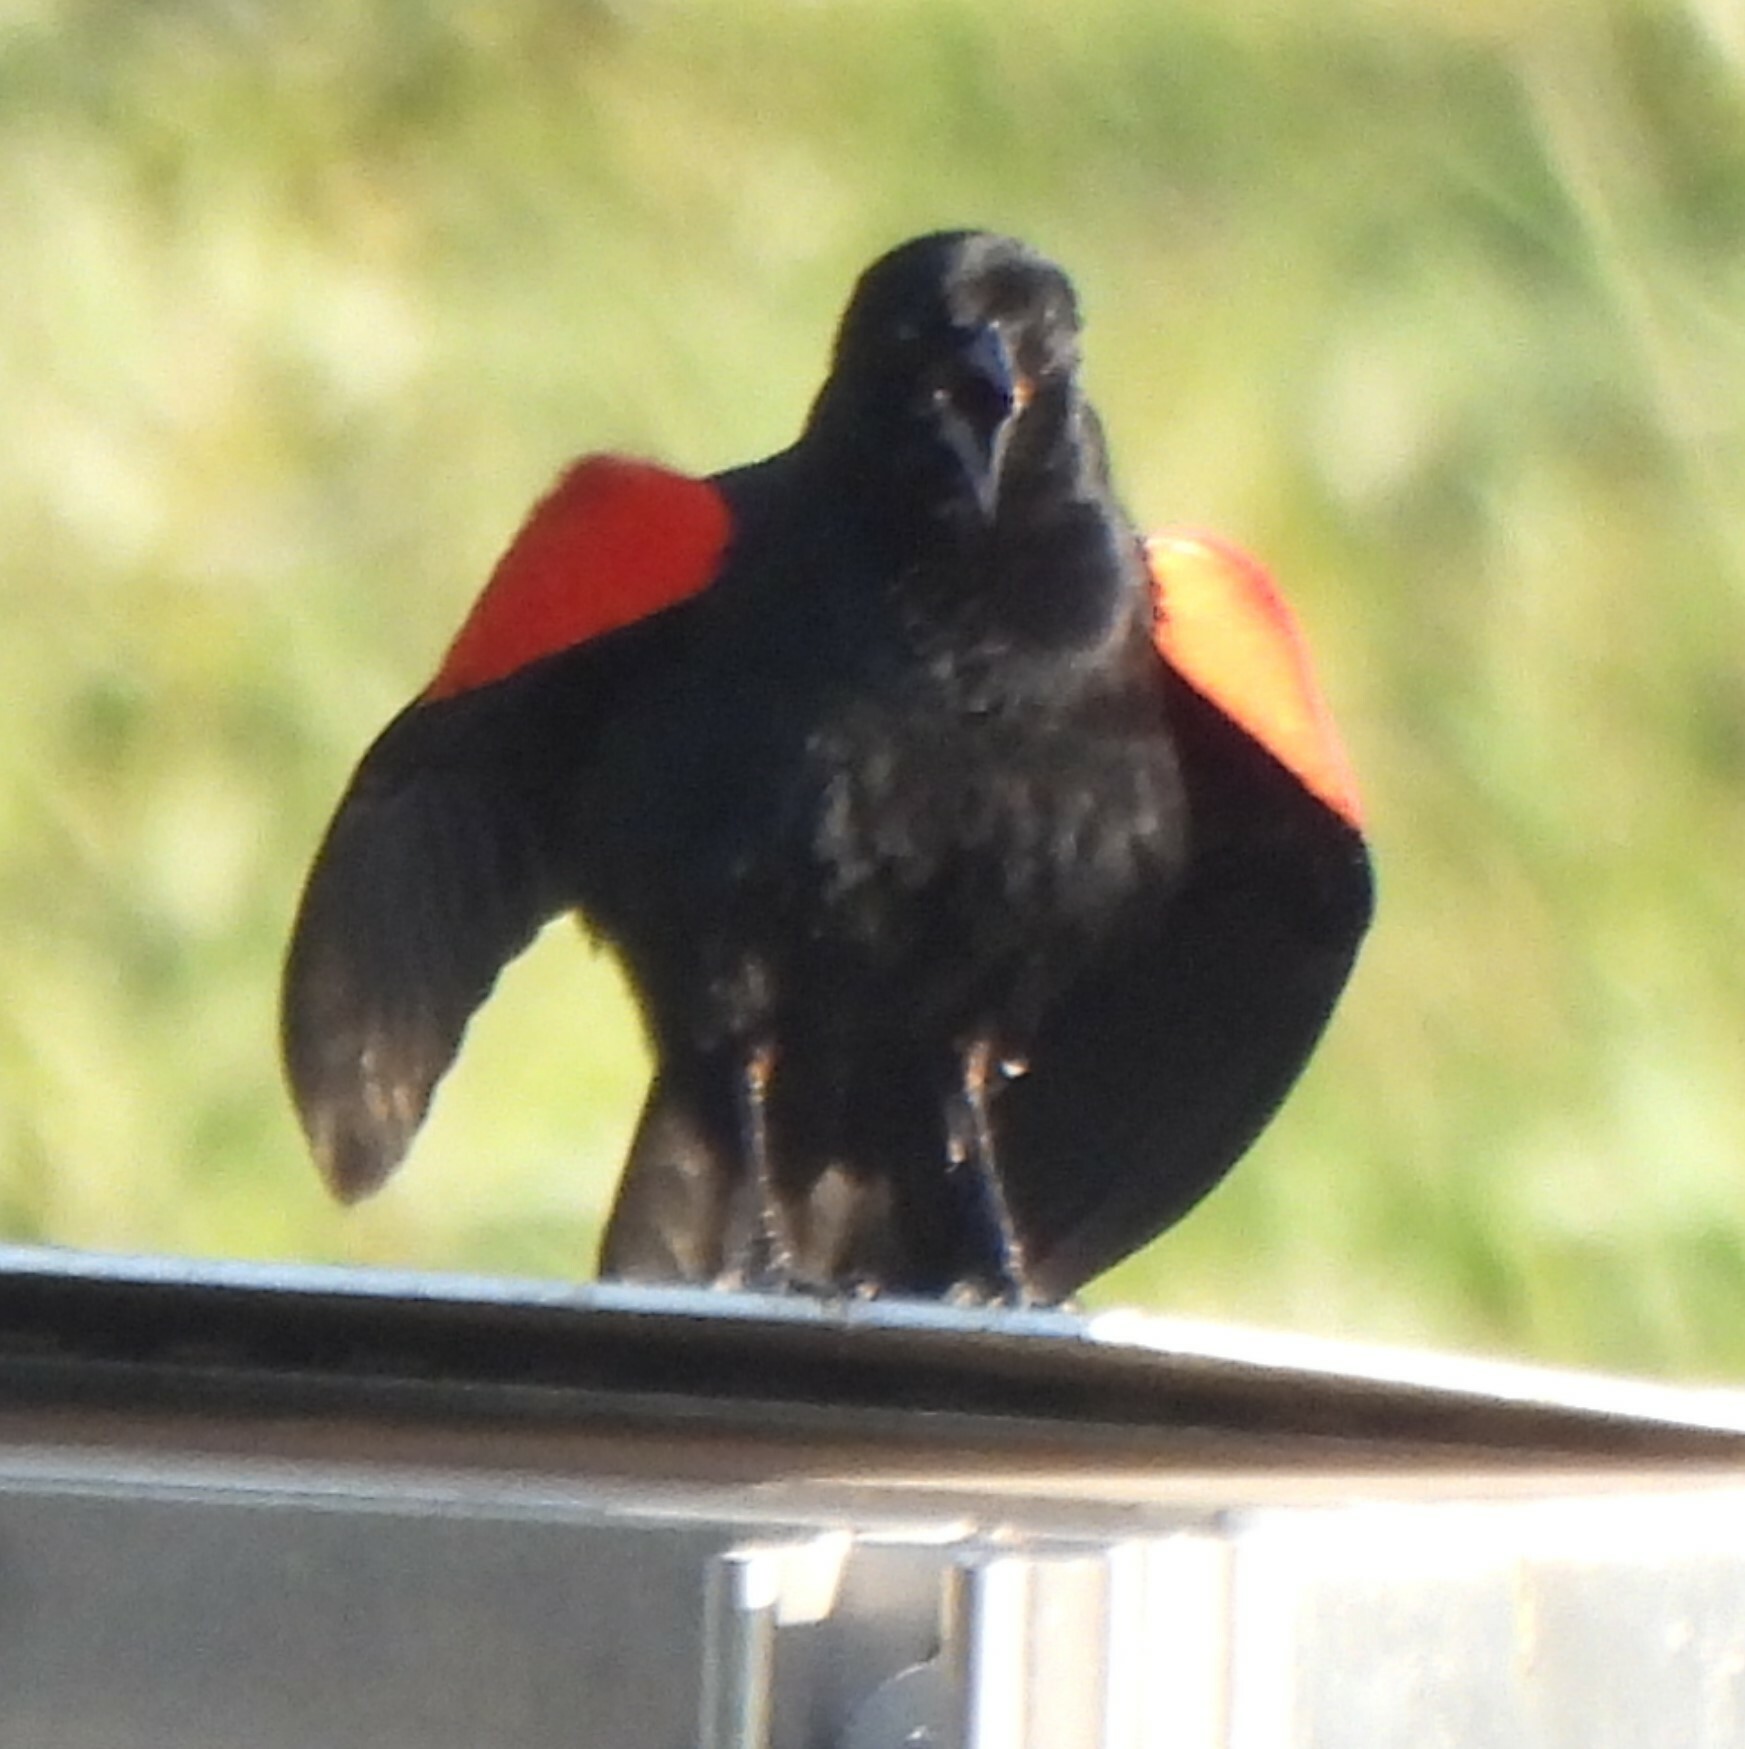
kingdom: Animalia
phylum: Chordata
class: Aves
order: Passeriformes
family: Icteridae
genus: Agelaius
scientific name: Agelaius phoeniceus
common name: Red-winged blackbird
